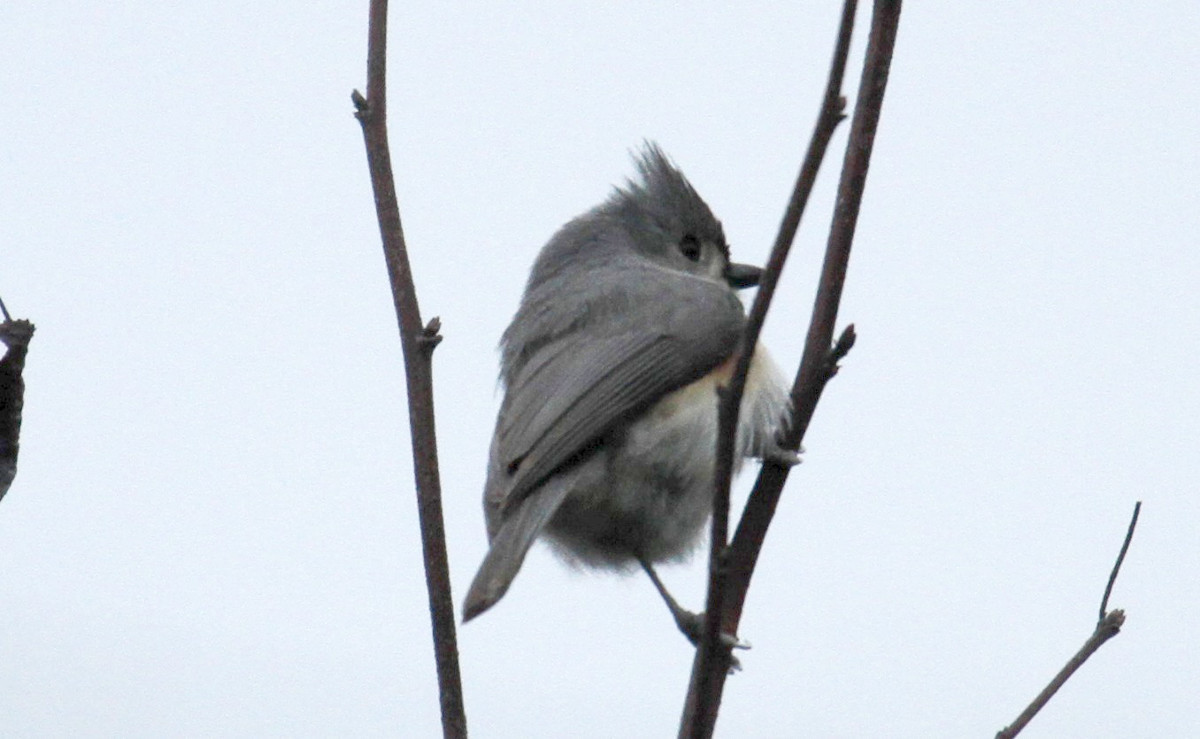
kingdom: Animalia
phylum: Chordata
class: Aves
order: Passeriformes
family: Paridae
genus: Baeolophus
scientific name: Baeolophus bicolor
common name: Tufted titmouse
